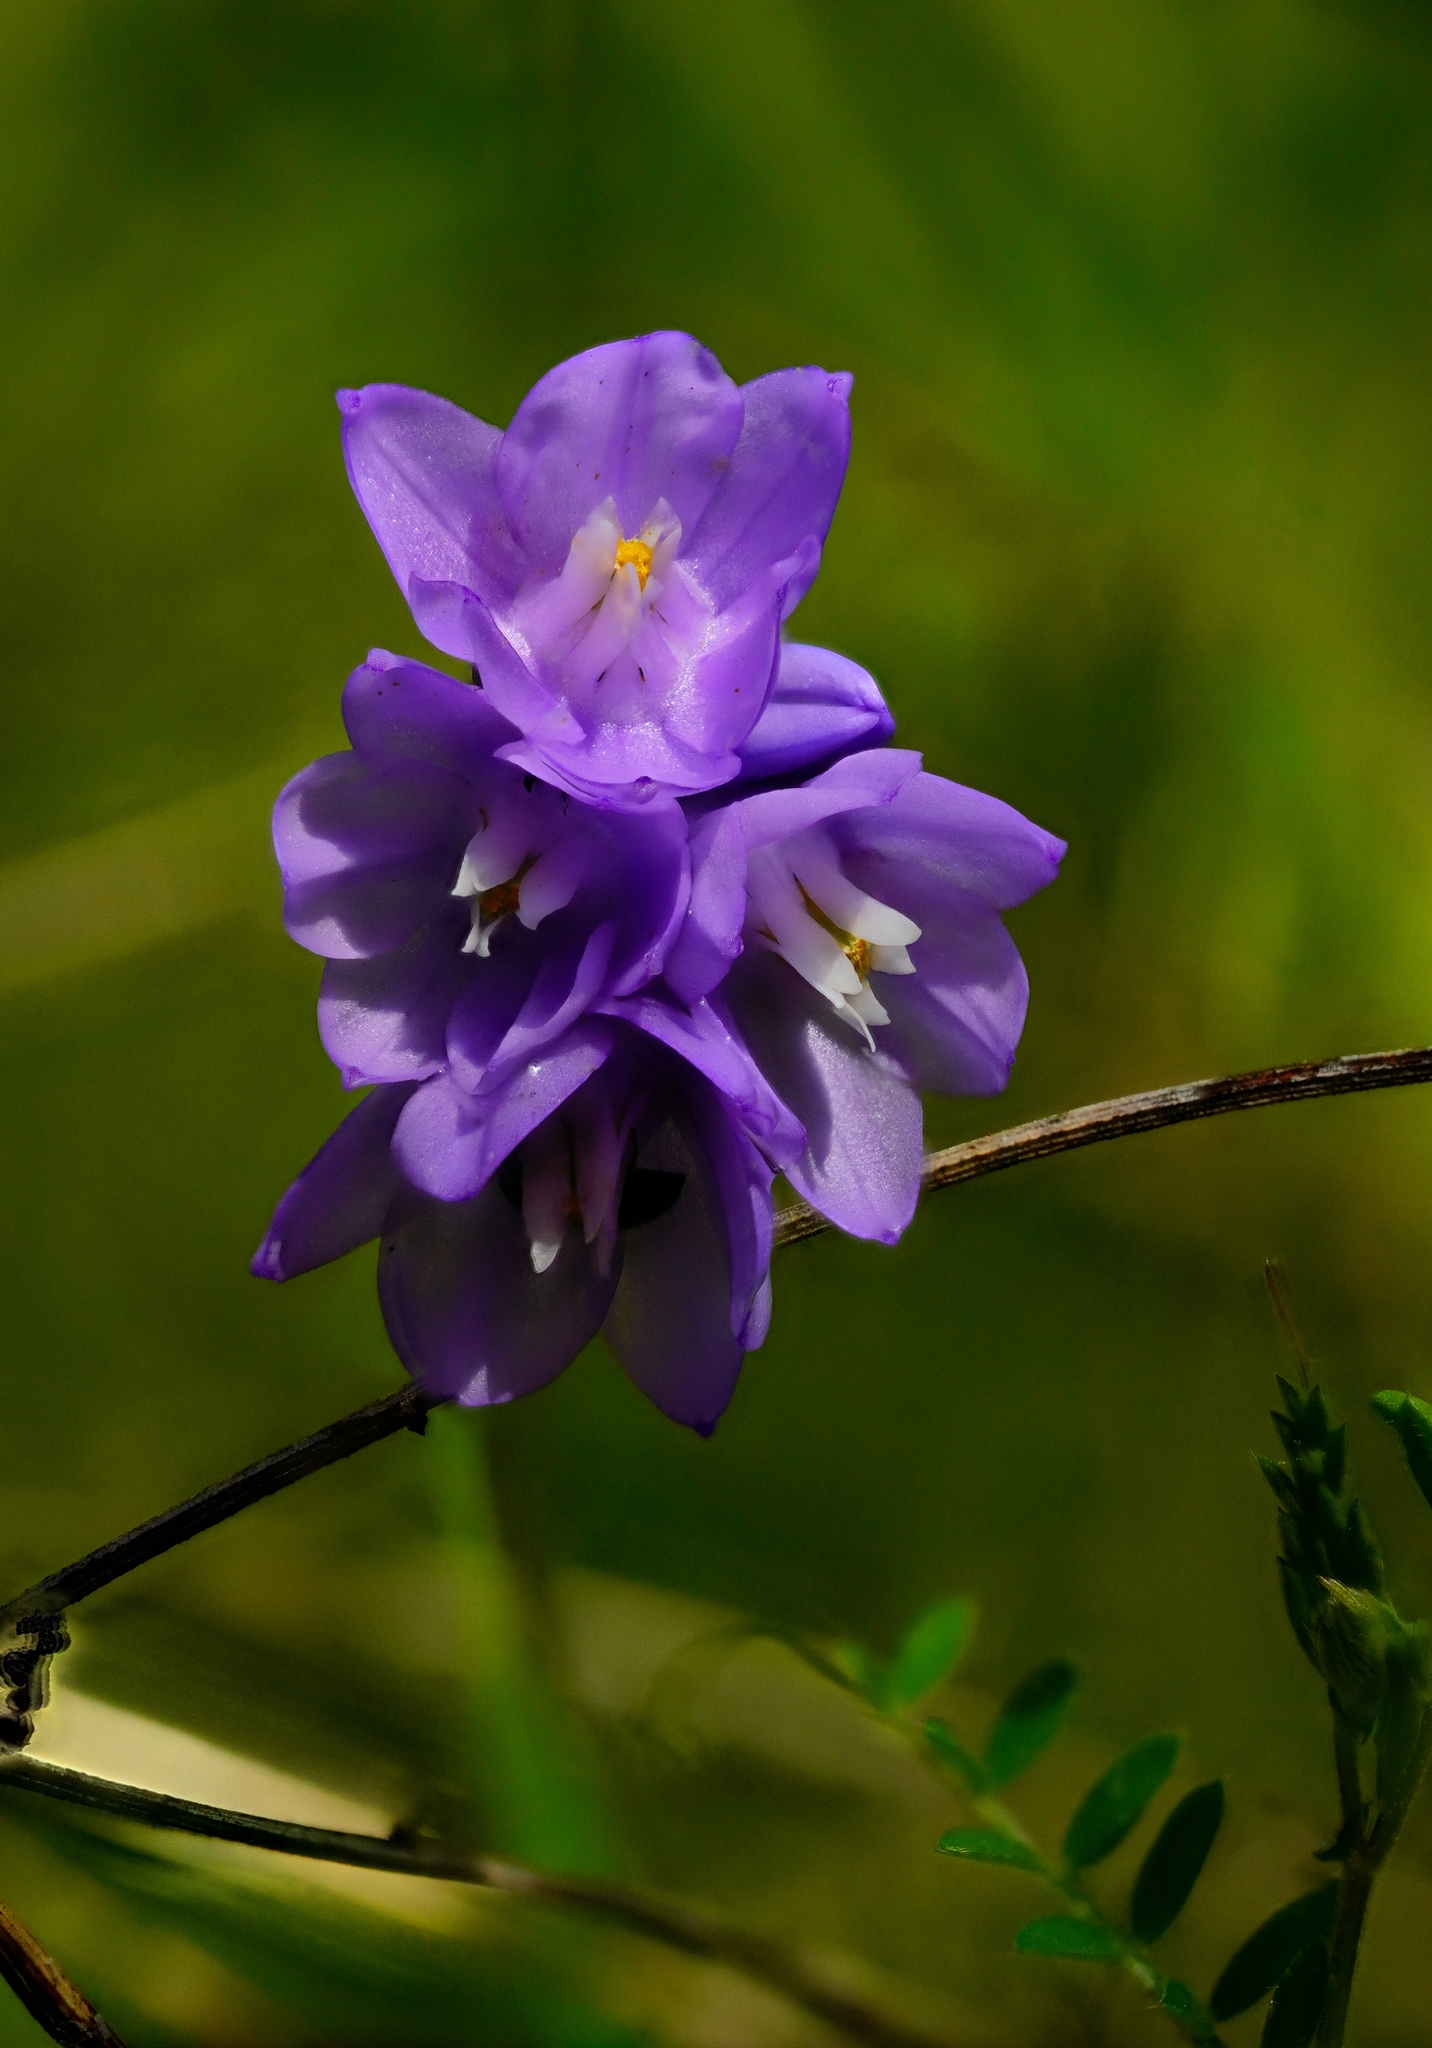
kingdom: Plantae
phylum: Tracheophyta
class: Liliopsida
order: Asparagales
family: Asparagaceae
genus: Dipterostemon
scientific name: Dipterostemon capitatus
